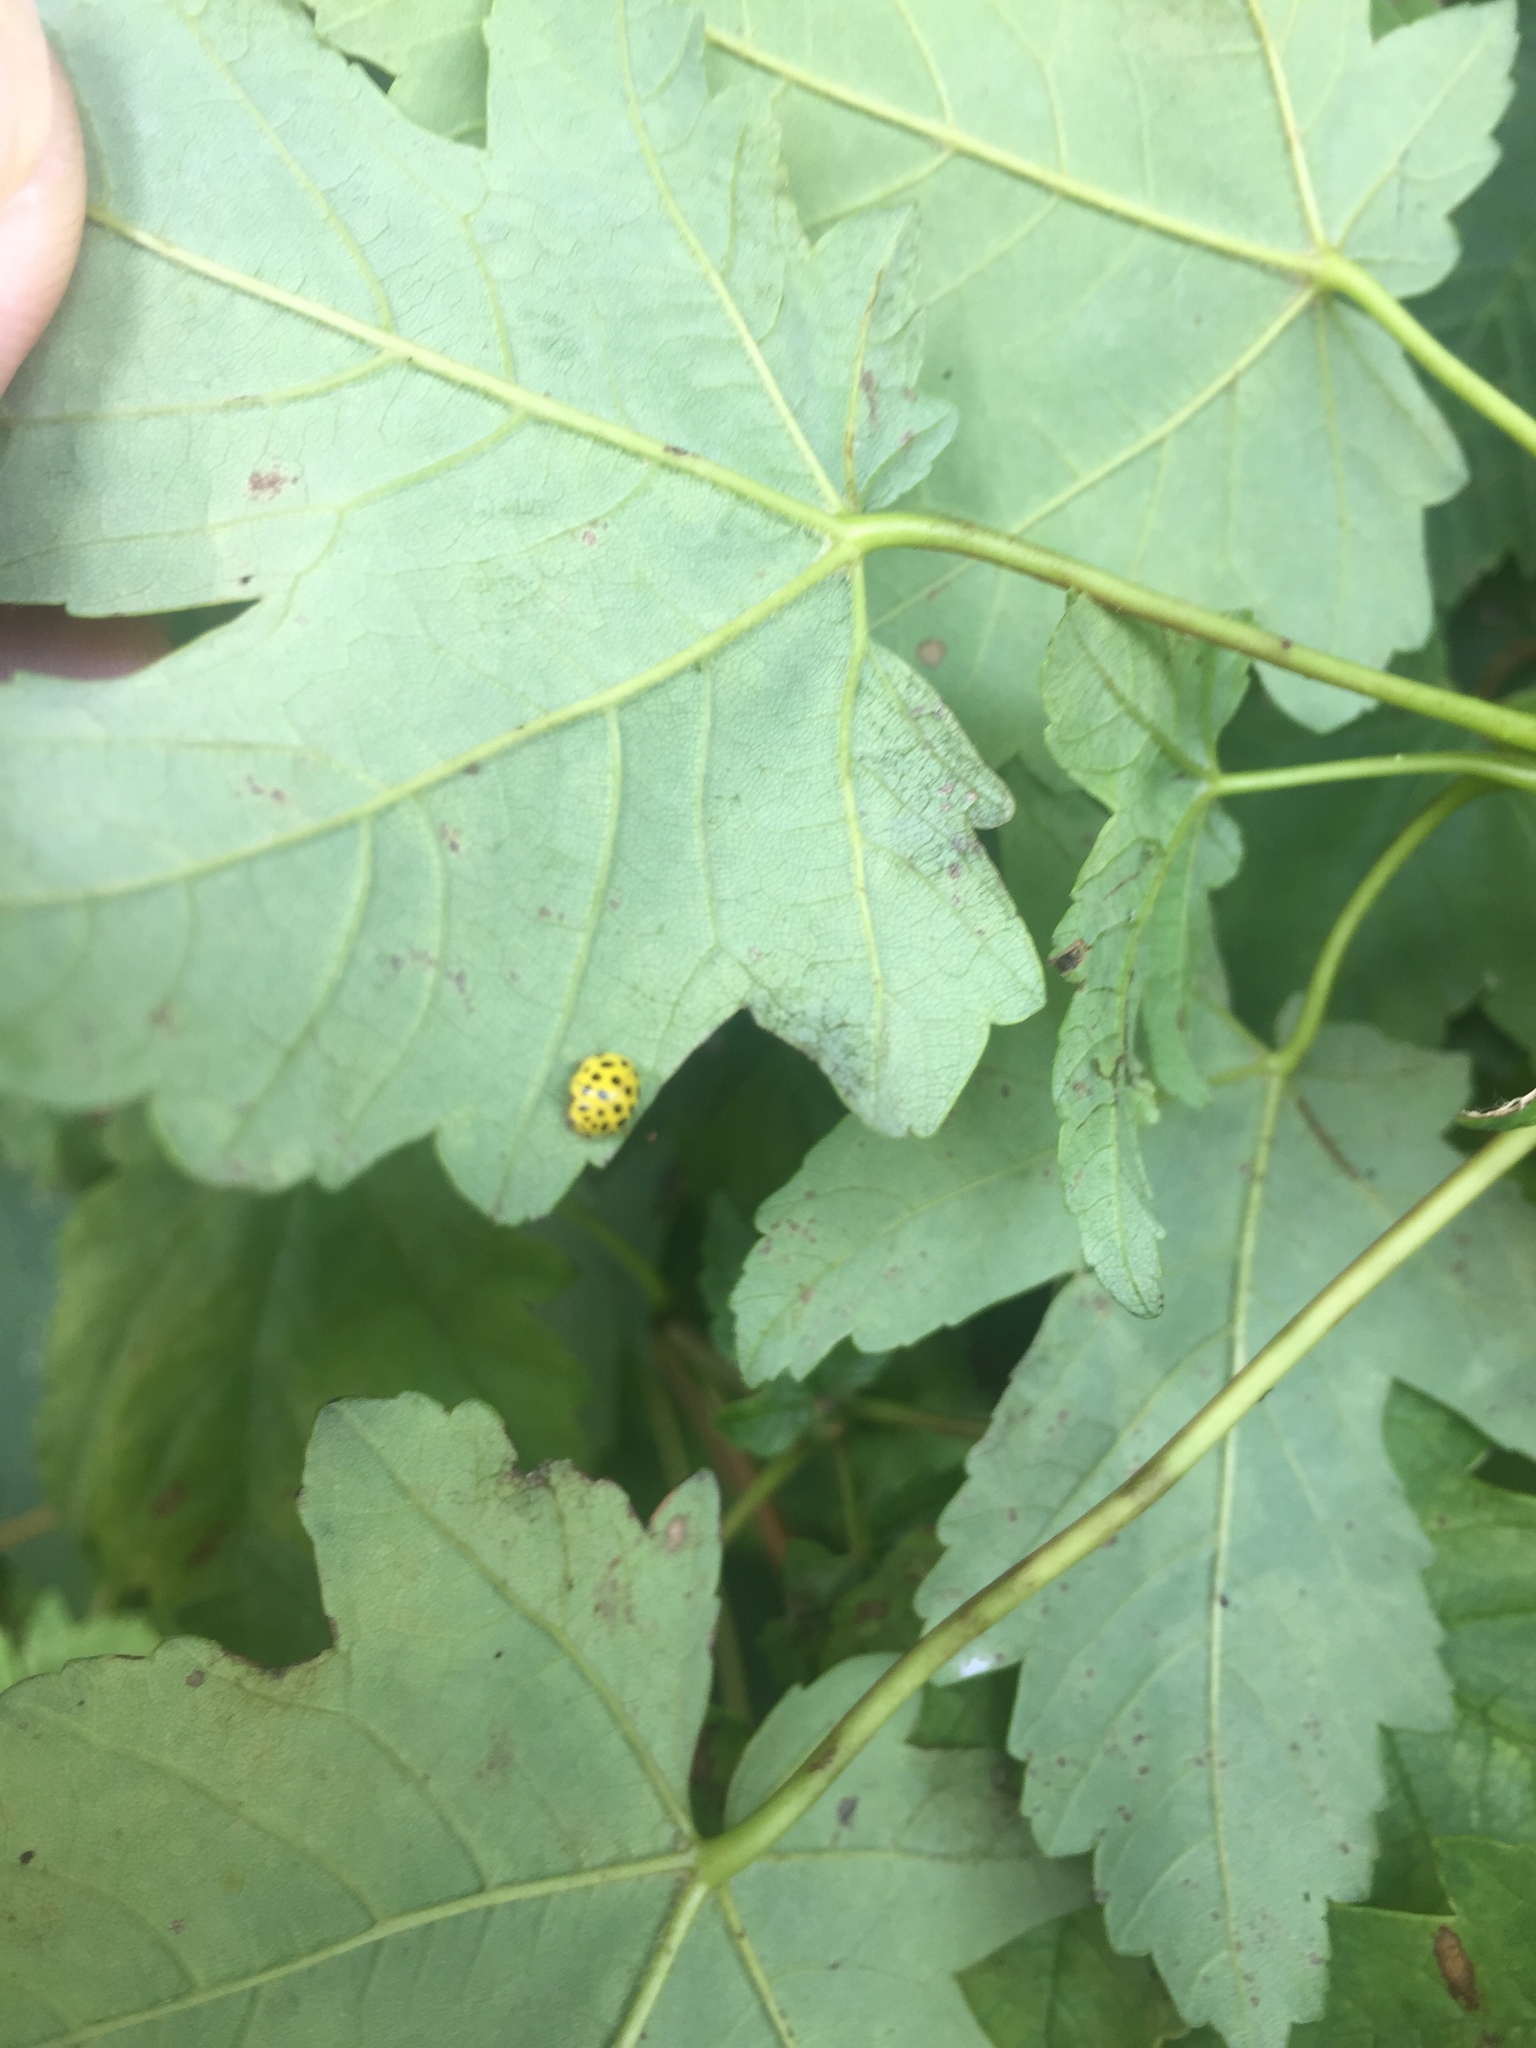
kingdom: Animalia
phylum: Arthropoda
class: Insecta
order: Coleoptera
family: Coccinellidae
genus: Psyllobora
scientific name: Psyllobora vigintiduopunctata
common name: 22-spot ladybird
